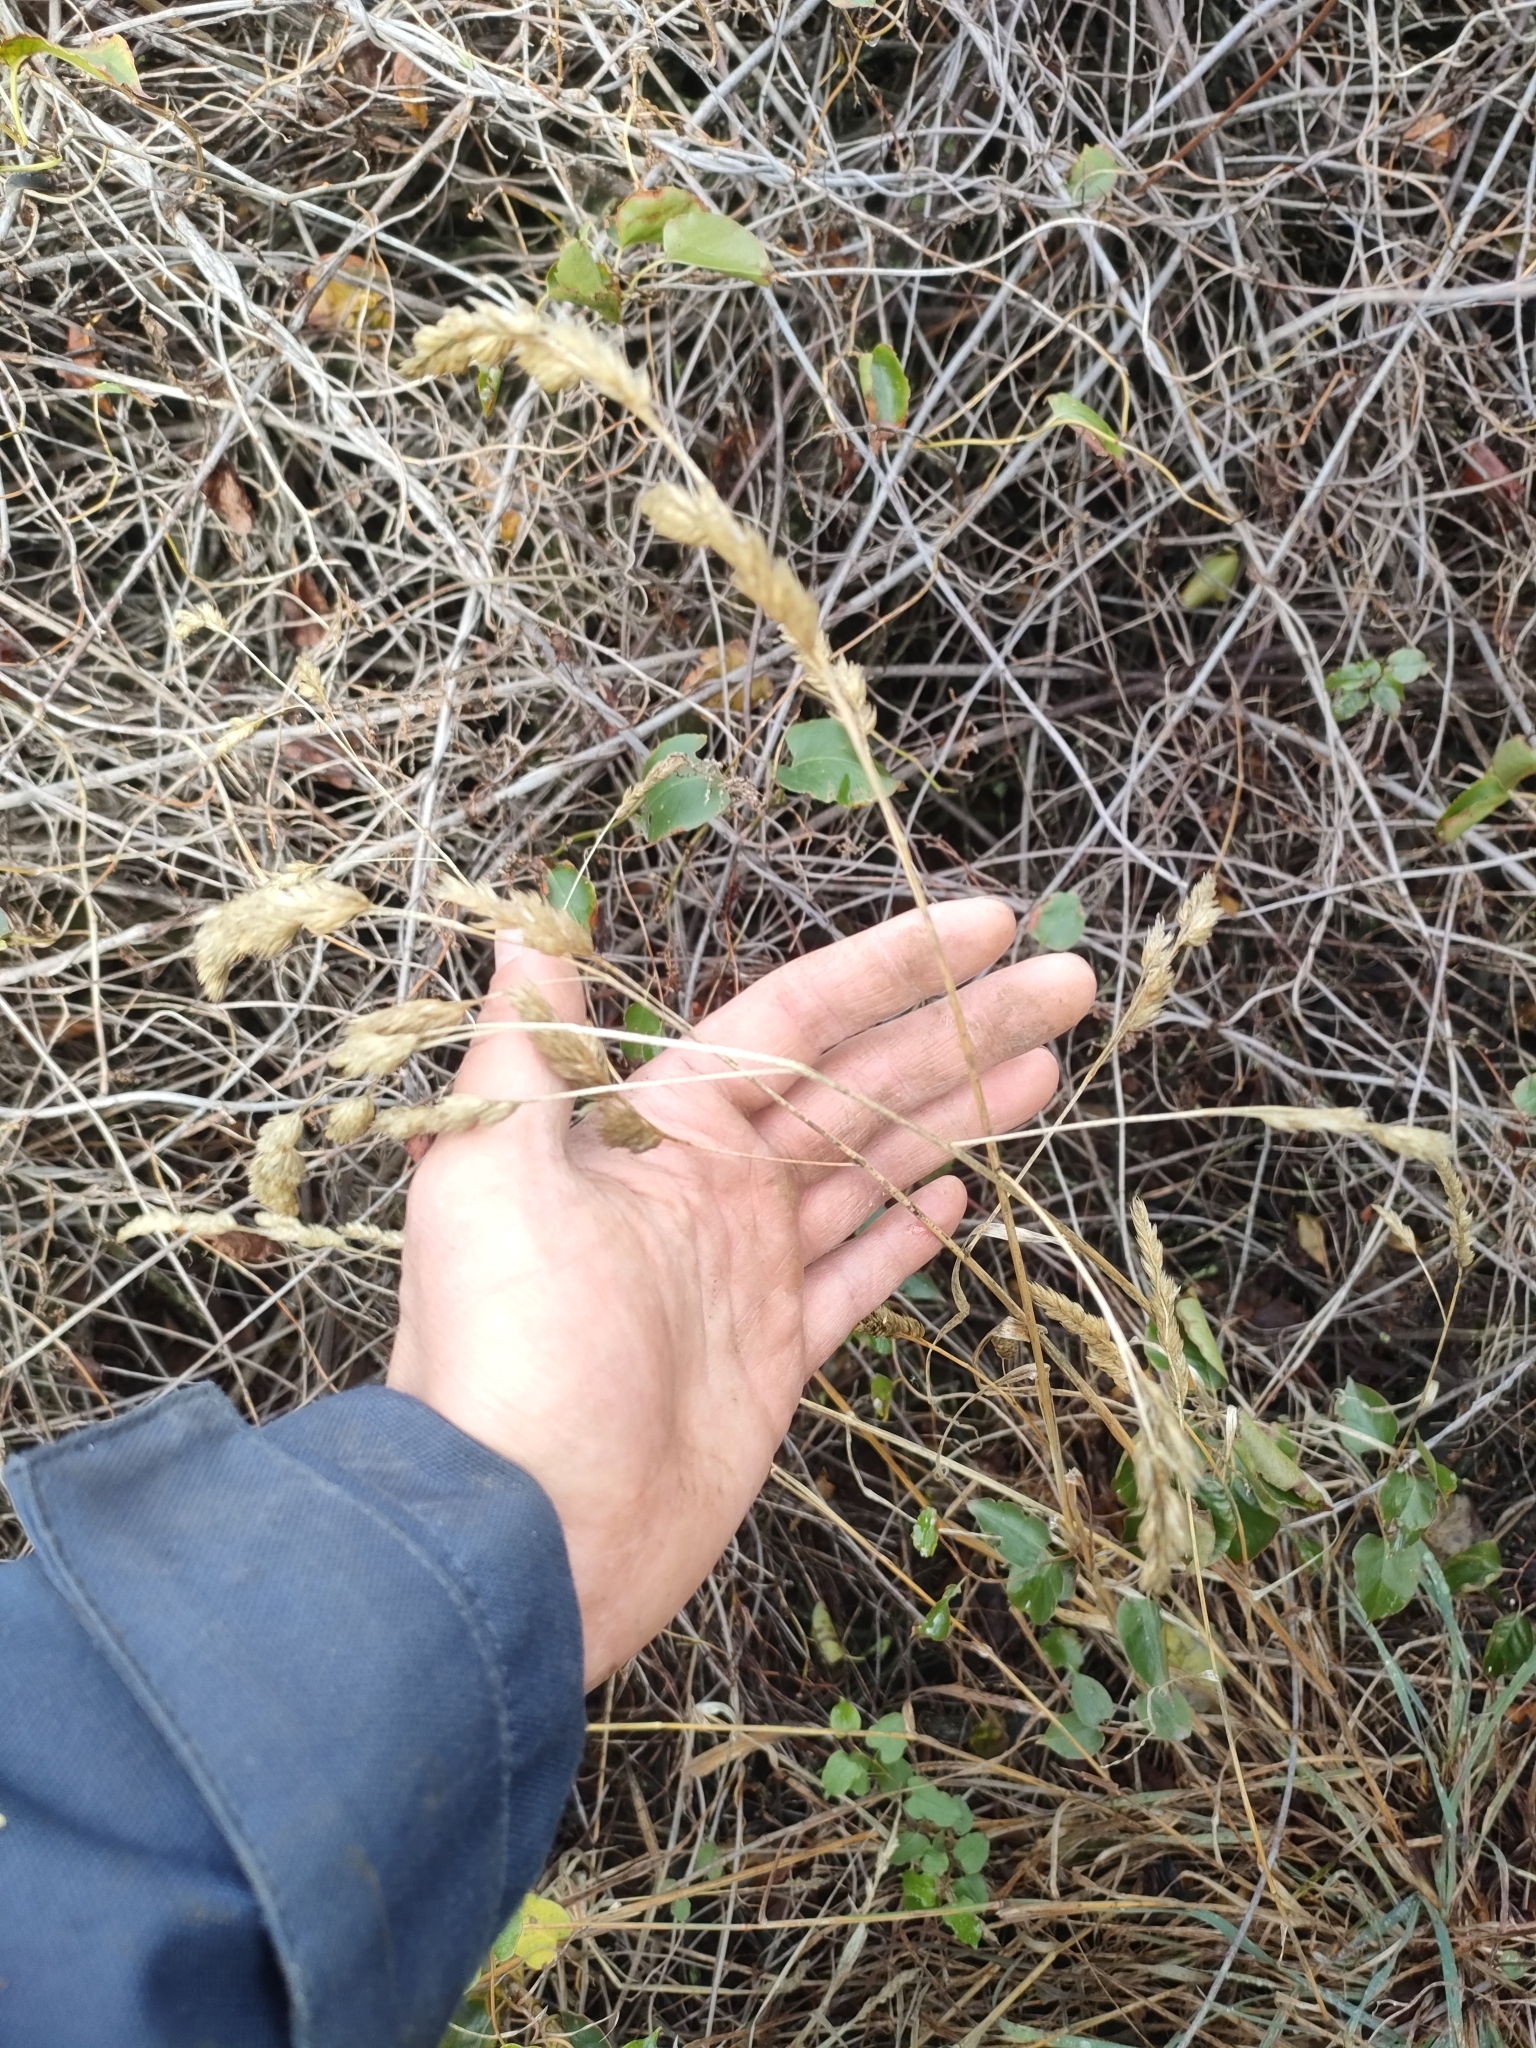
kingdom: Plantae
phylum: Tracheophyta
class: Liliopsida
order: Poales
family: Poaceae
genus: Dactylis
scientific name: Dactylis glomerata
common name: Orchardgrass
